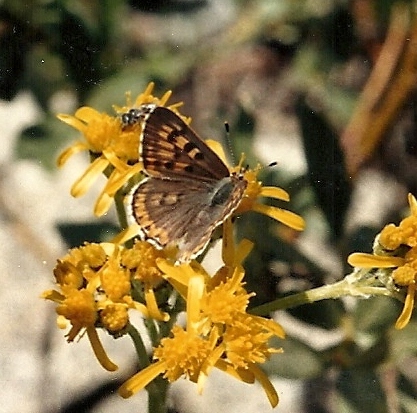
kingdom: Animalia
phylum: Arthropoda
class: Insecta
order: Lepidoptera
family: Lycaenidae
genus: Tharsalea
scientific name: Tharsalea editha
